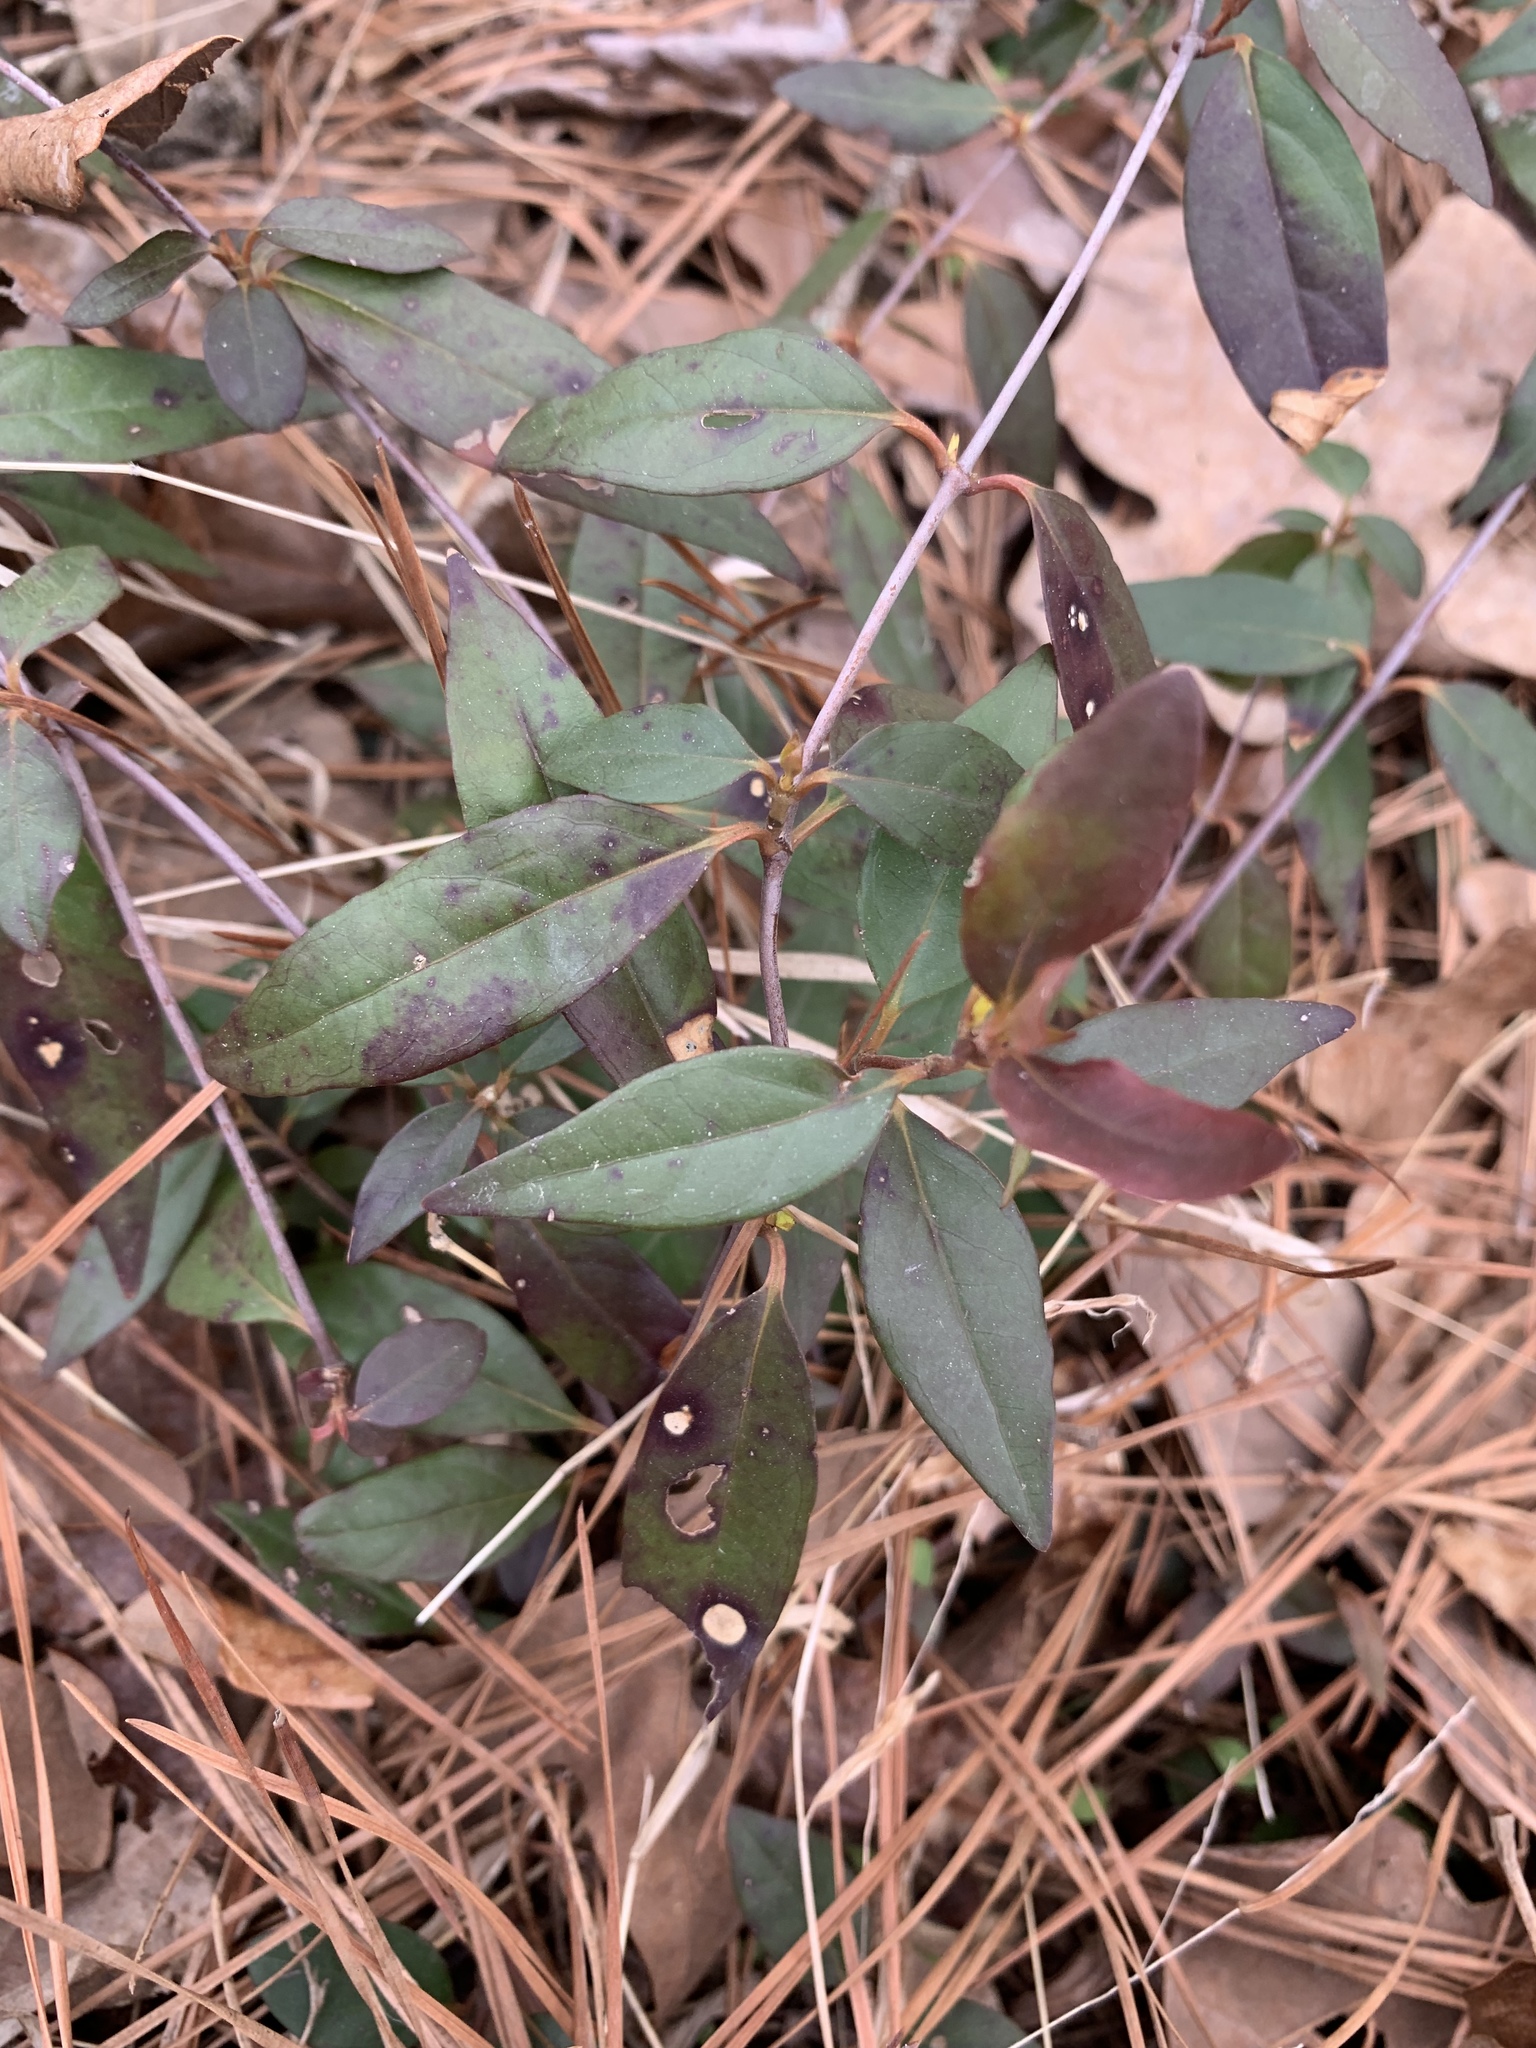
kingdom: Plantae
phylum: Tracheophyta
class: Magnoliopsida
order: Gentianales
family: Gelsemiaceae
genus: Gelsemium
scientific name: Gelsemium sempervirens
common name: Carolina-jasmine
